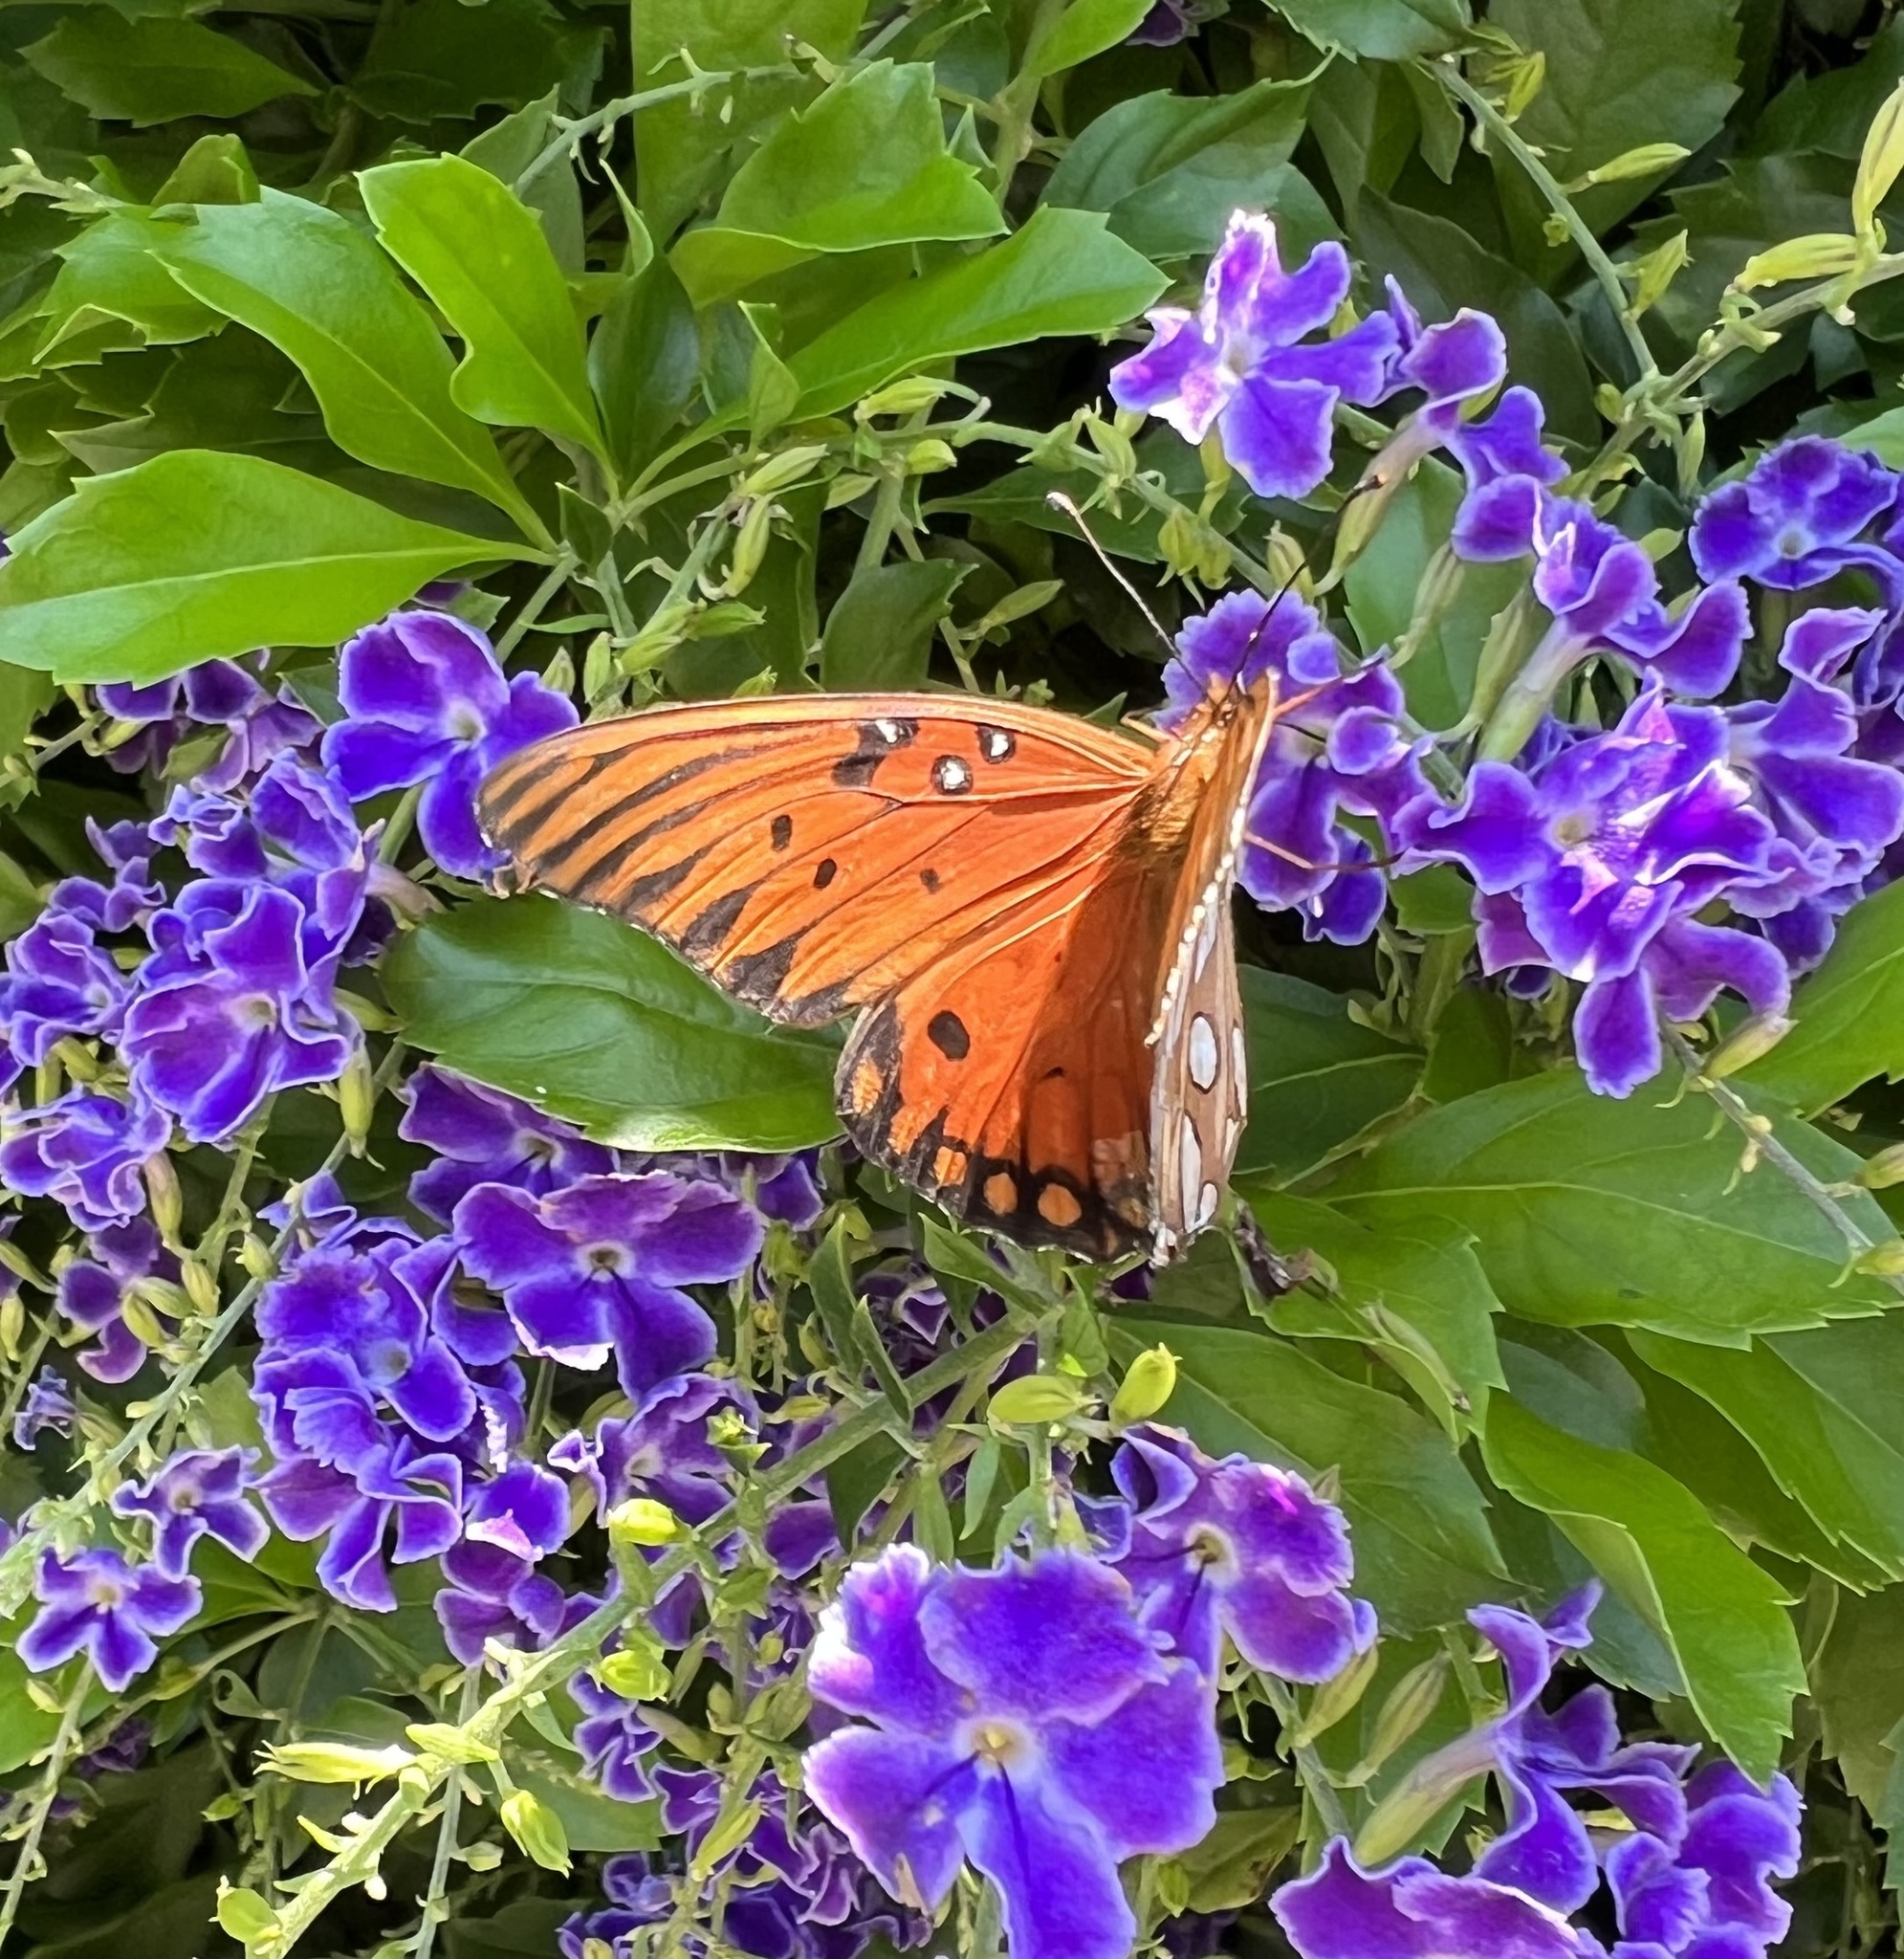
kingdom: Animalia
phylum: Arthropoda
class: Insecta
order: Lepidoptera
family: Nymphalidae
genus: Dione
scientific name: Dione vanillae
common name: Gulf fritillary
